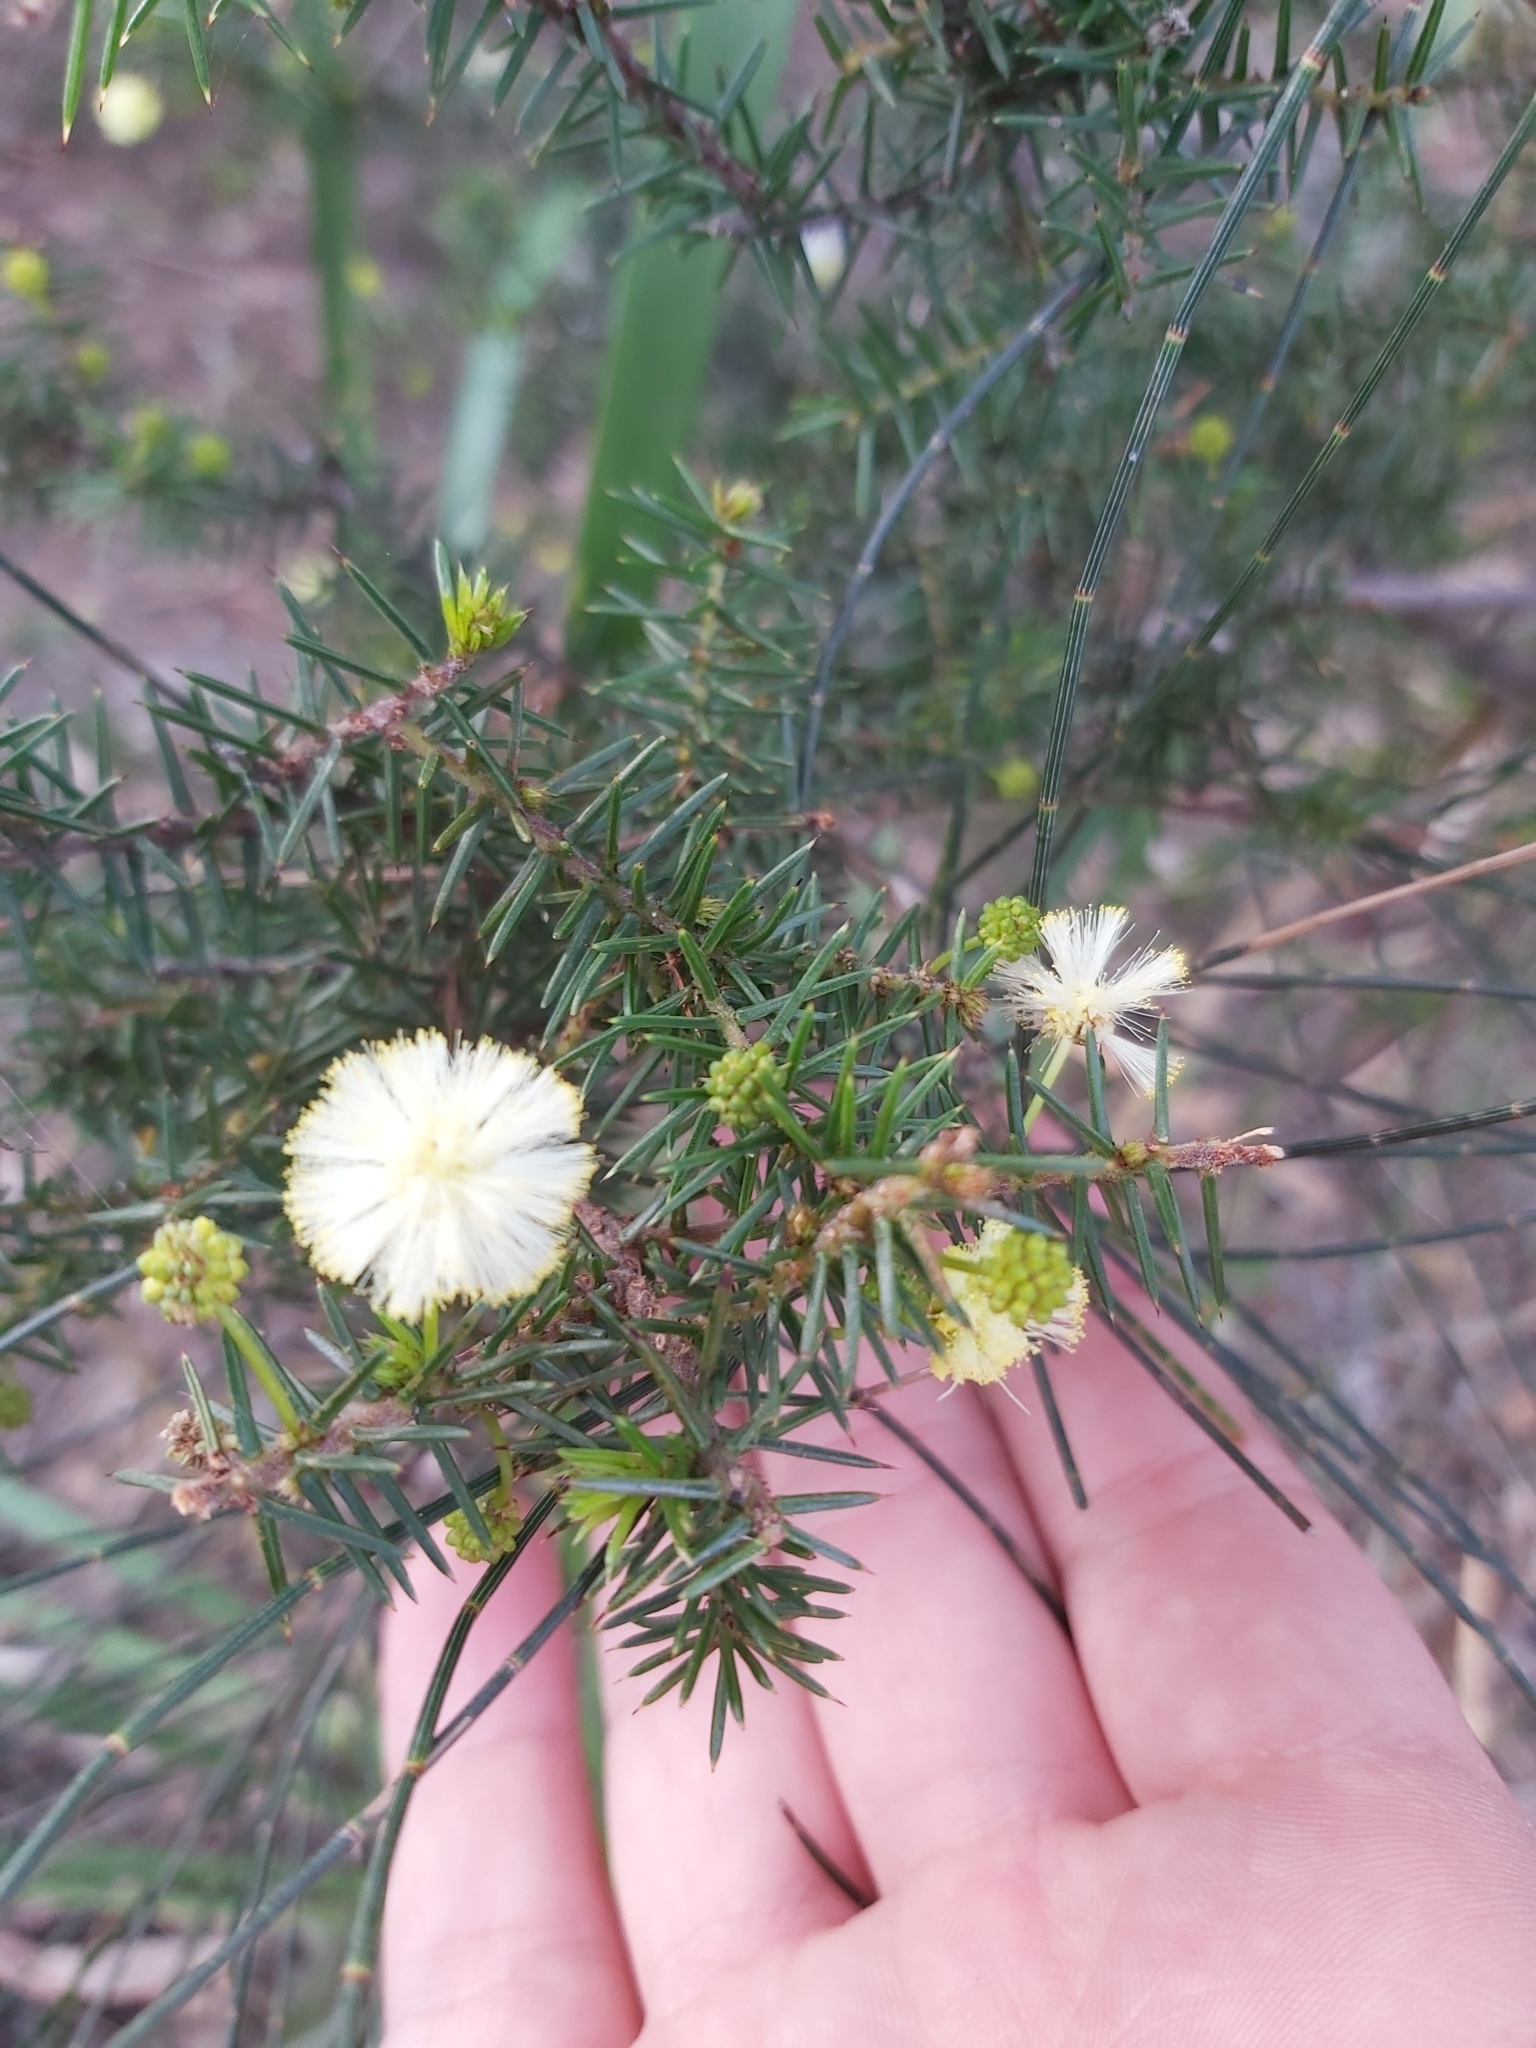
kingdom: Plantae
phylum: Tracheophyta
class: Magnoliopsida
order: Fabales
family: Fabaceae
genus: Acacia
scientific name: Acacia ulicifolia
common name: Juniper wattle
